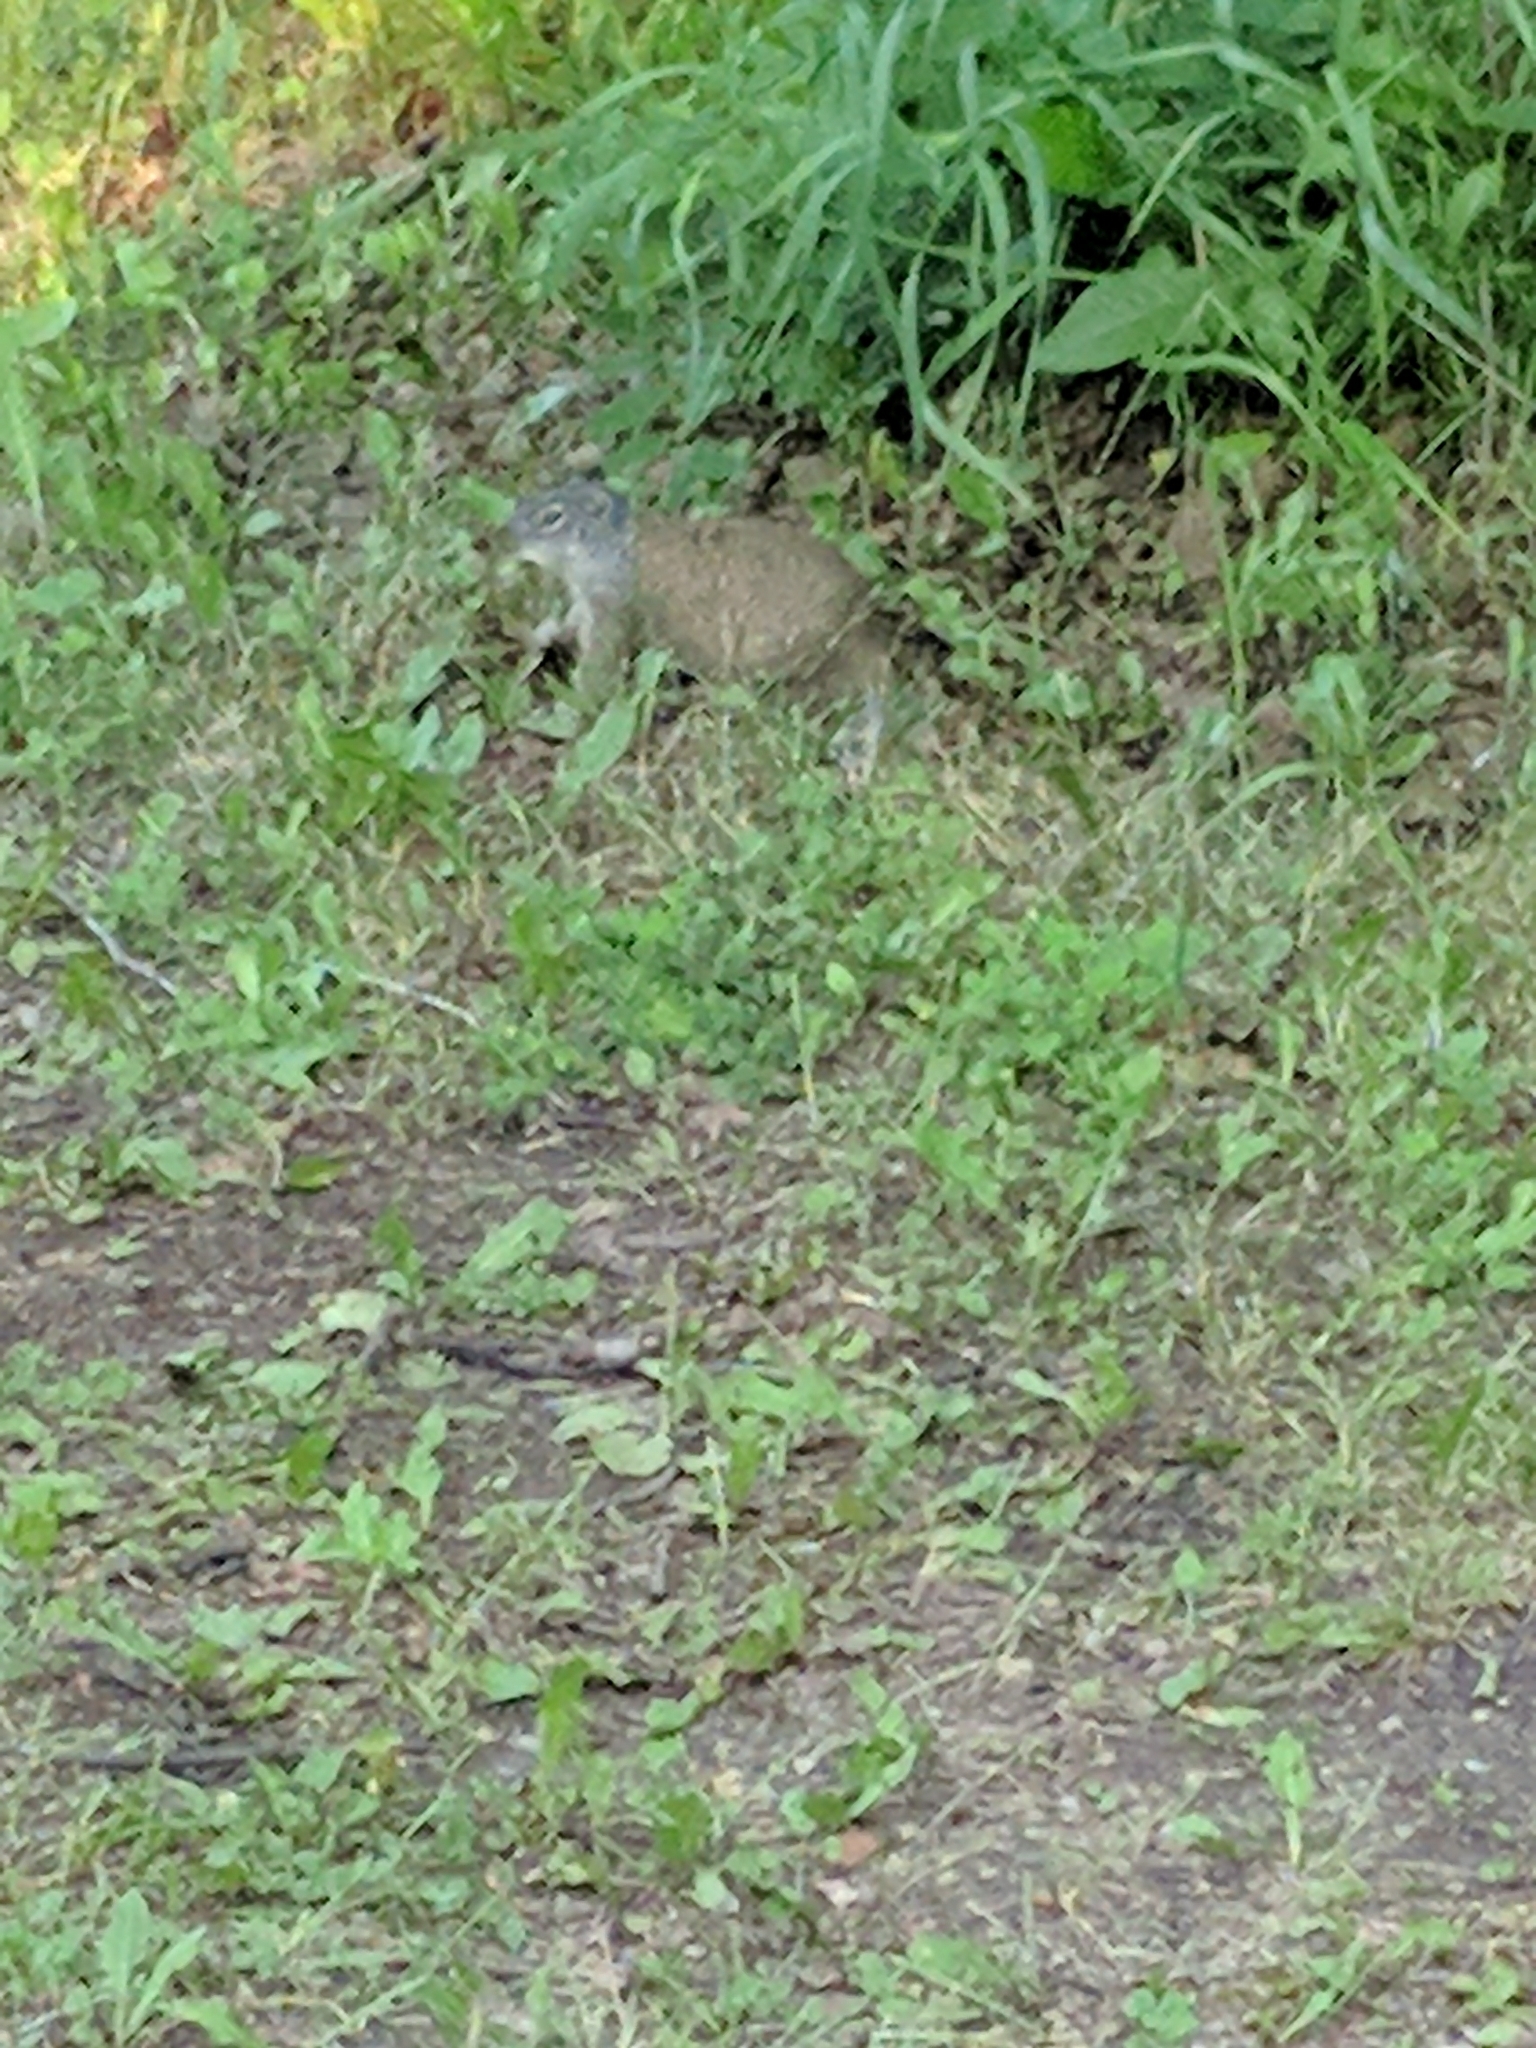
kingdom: Animalia
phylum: Chordata
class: Mammalia
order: Rodentia
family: Sciuridae
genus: Poliocitellus
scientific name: Poliocitellus franklinii
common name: Franklin's ground squirrel
